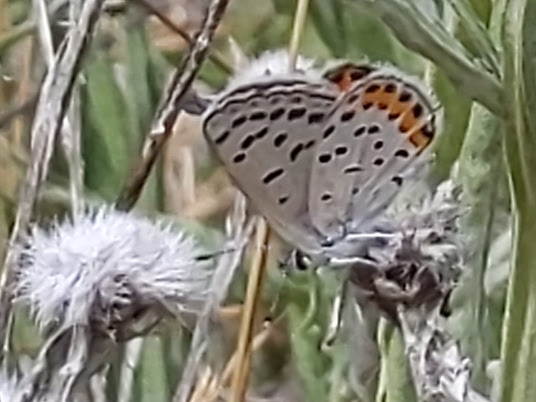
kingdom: Animalia
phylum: Arthropoda
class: Insecta
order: Lepidoptera
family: Lycaenidae
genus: Icaricia
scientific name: Icaricia acmon
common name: Acmon blue
